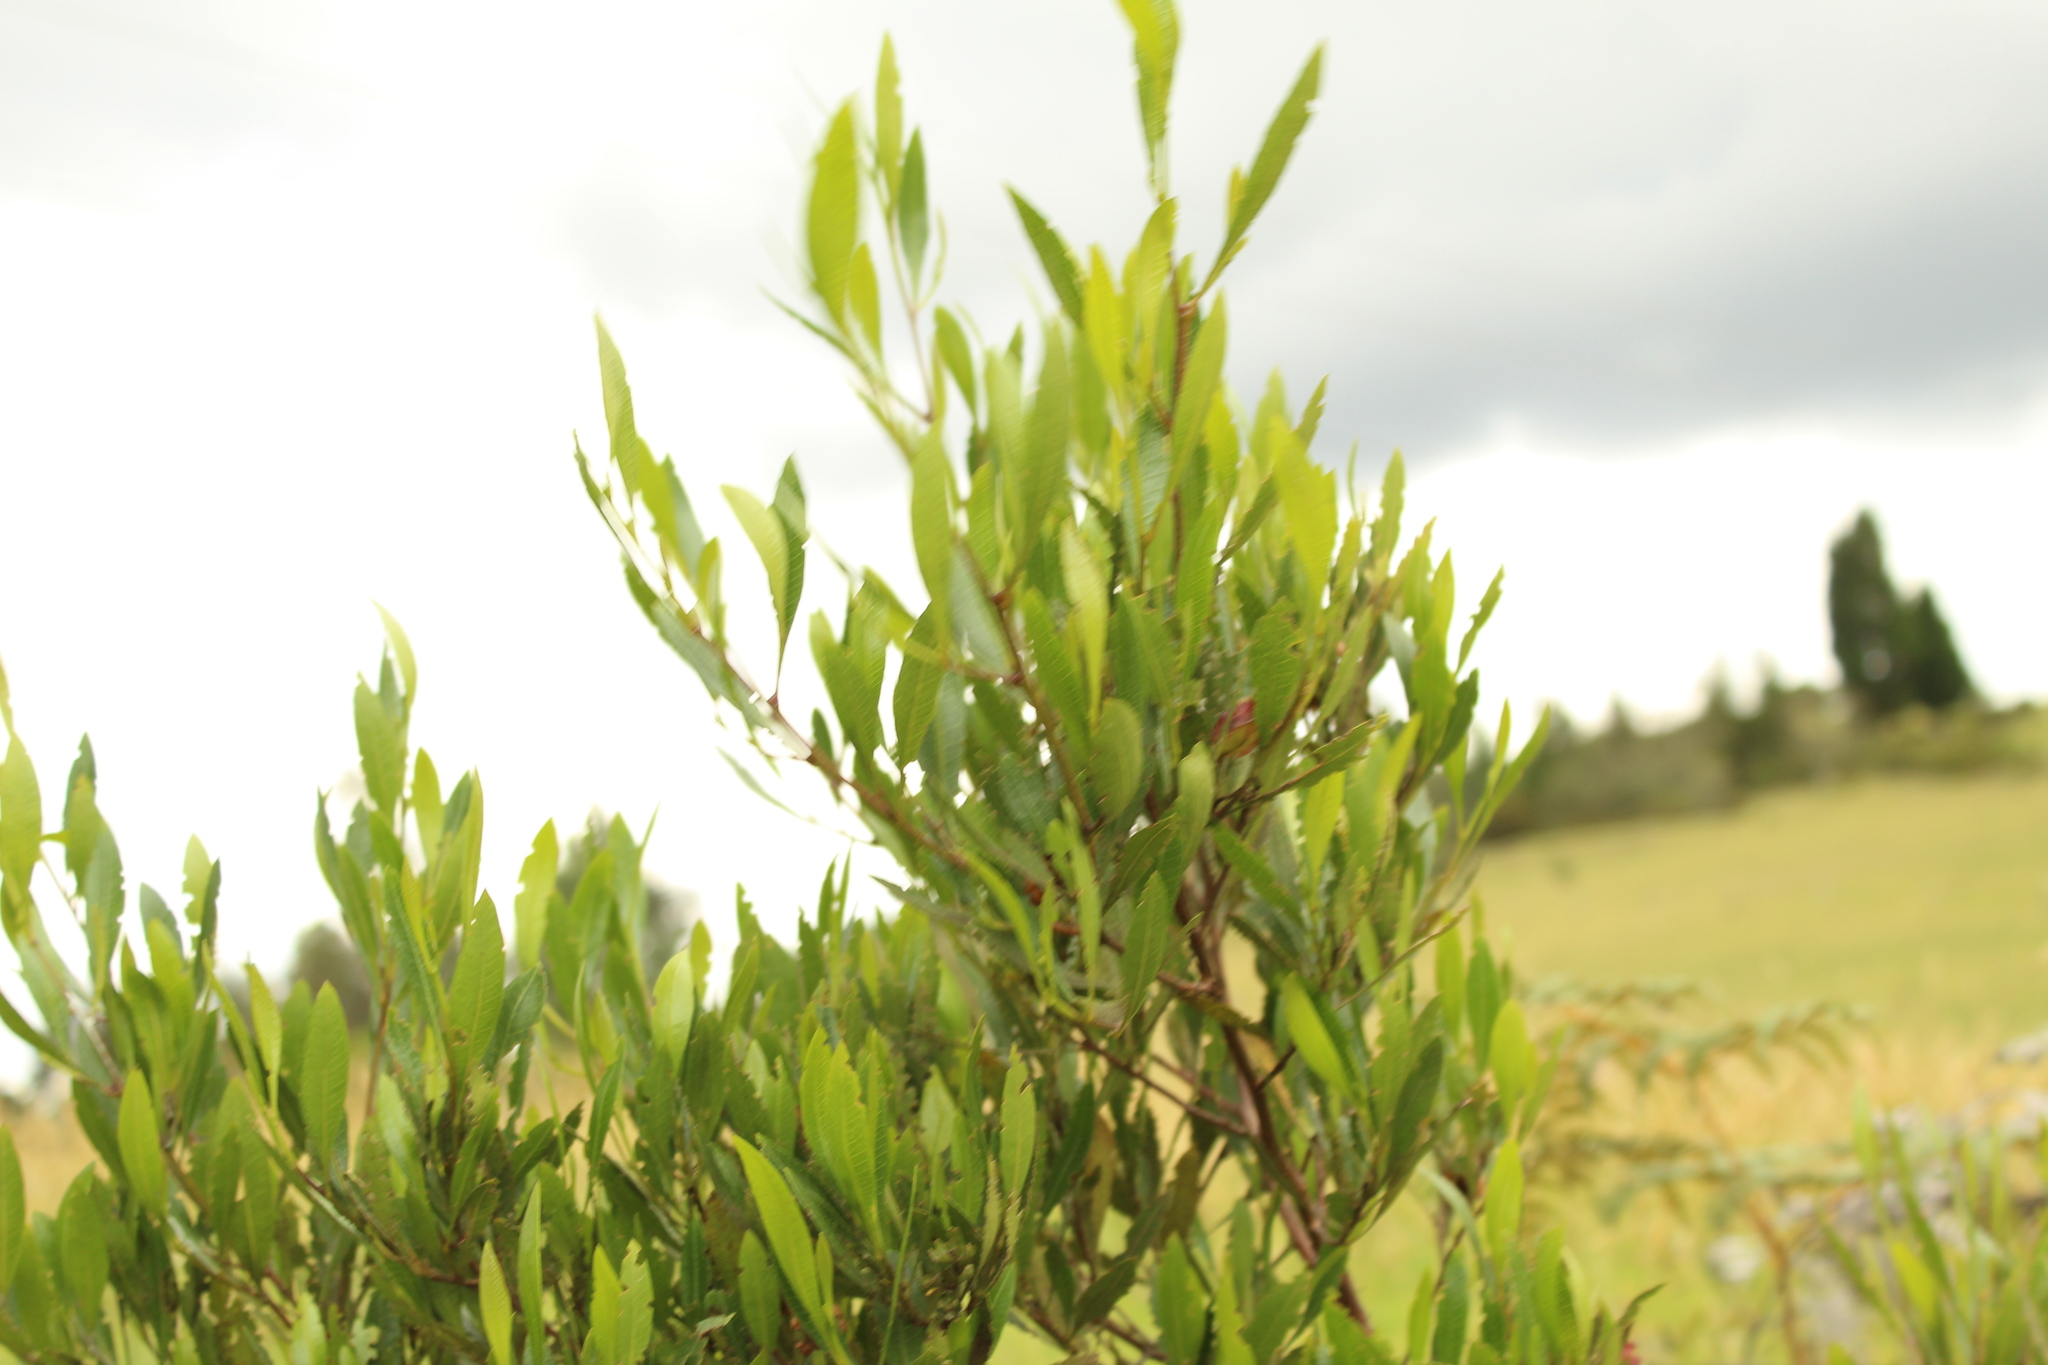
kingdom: Plantae
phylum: Tracheophyta
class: Magnoliopsida
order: Sapindales
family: Sapindaceae
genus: Dodonaea
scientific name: Dodonaea viscosa
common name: Hopbush
